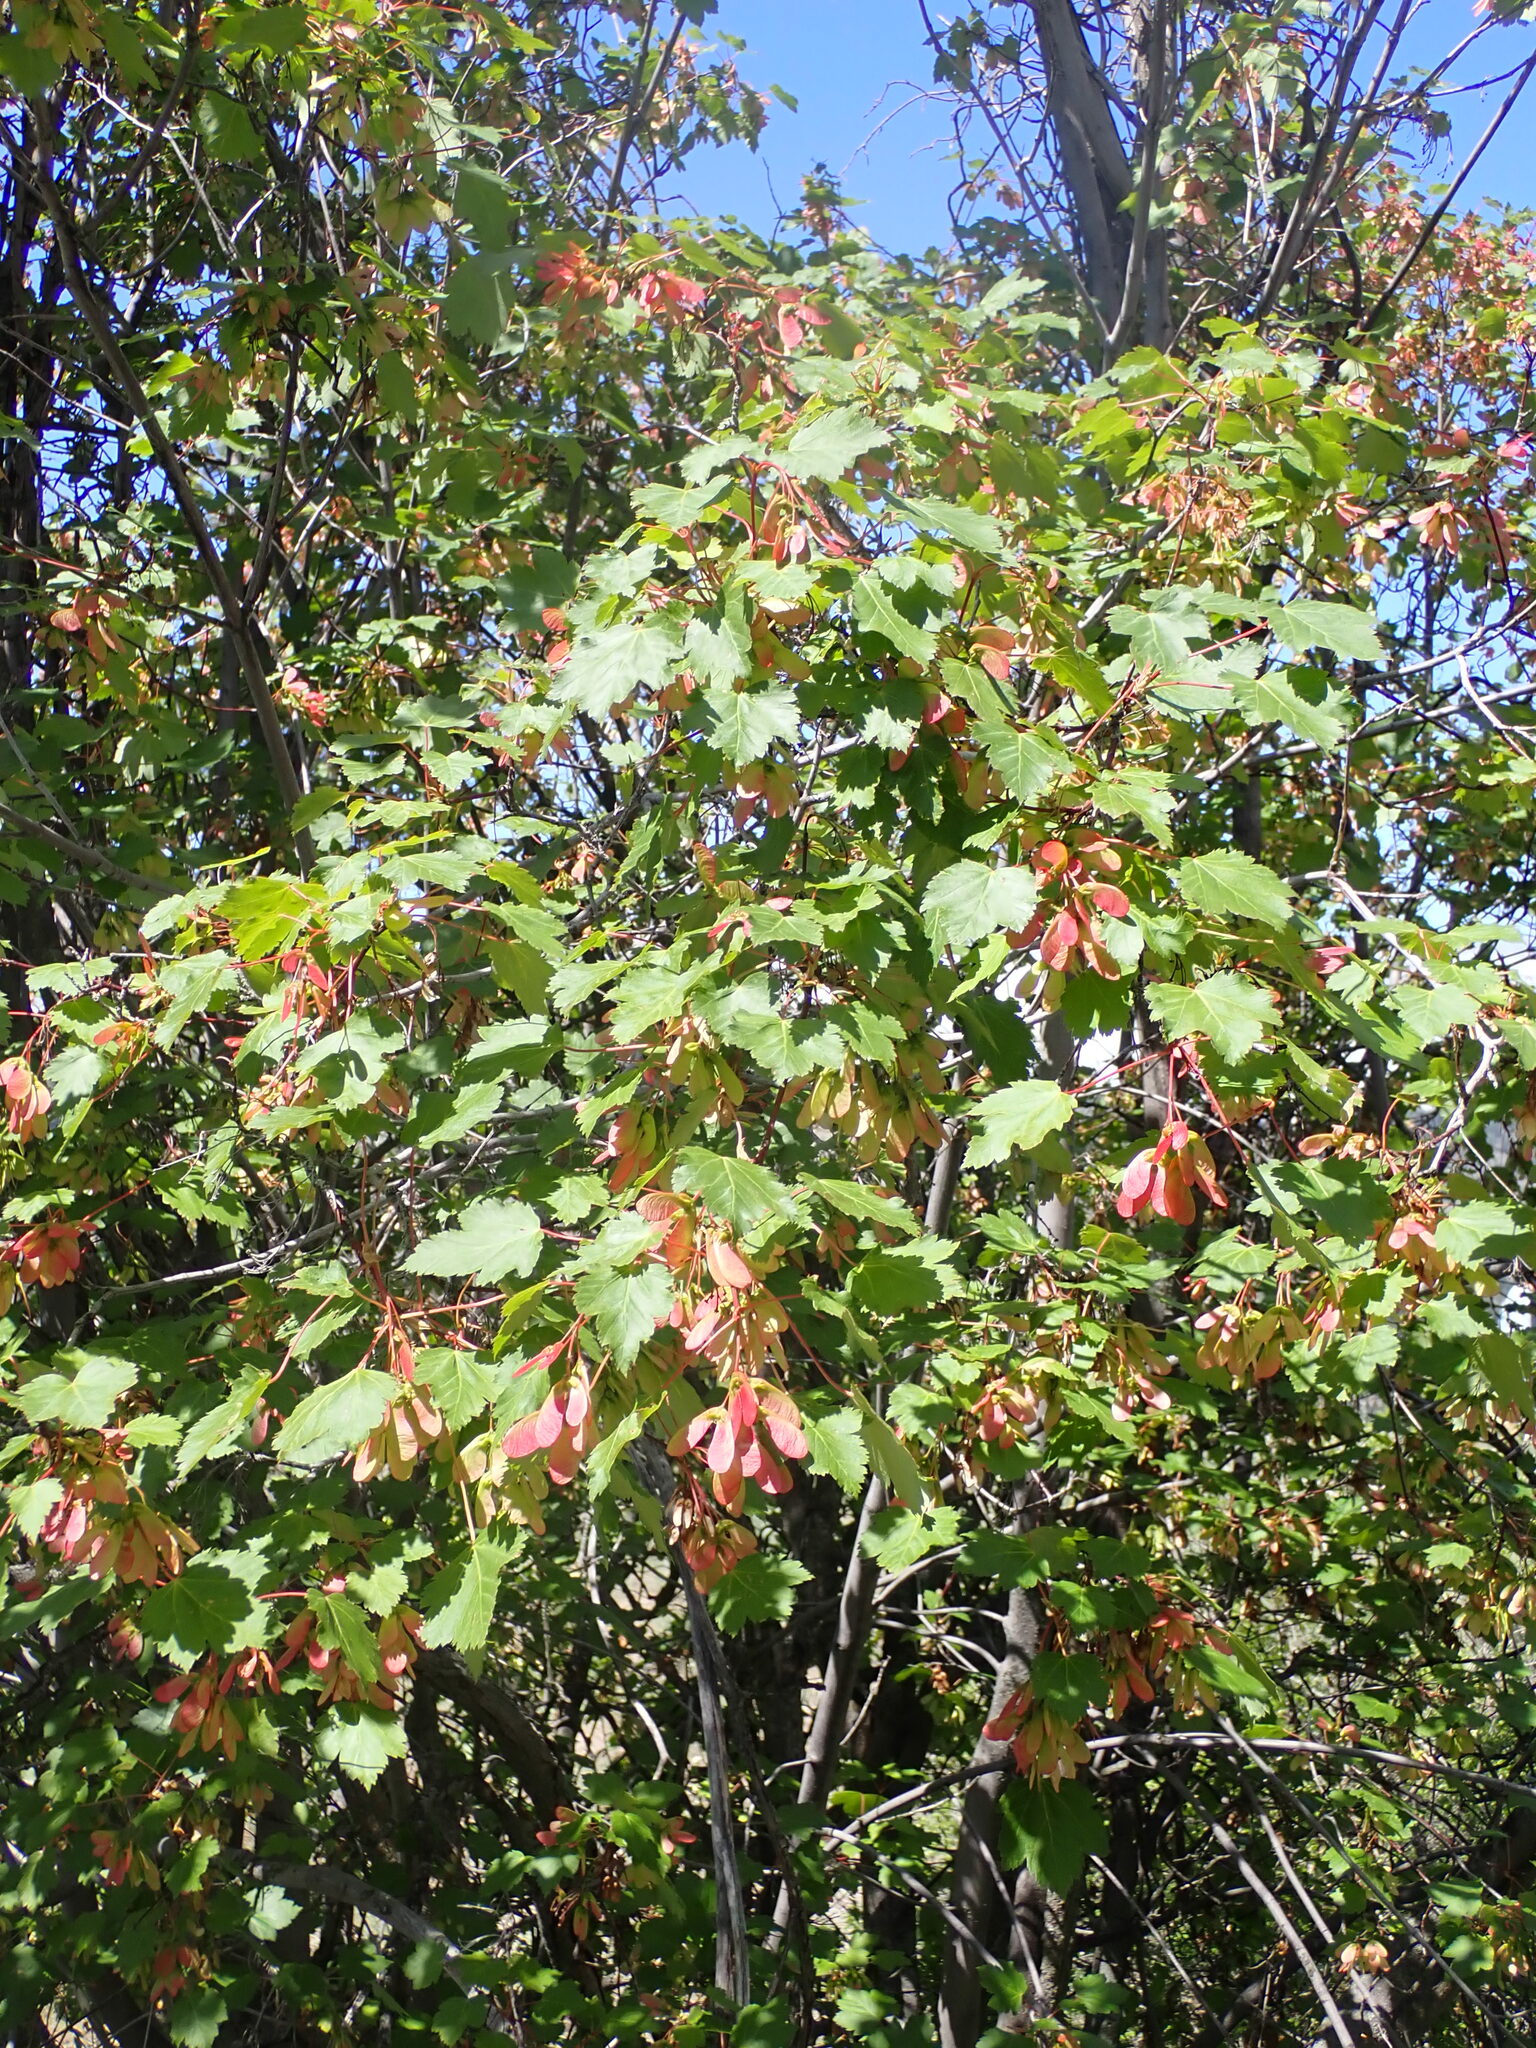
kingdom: Plantae
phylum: Tracheophyta
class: Magnoliopsida
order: Sapindales
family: Sapindaceae
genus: Acer
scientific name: Acer glabrum
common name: Rocky mountain maple
